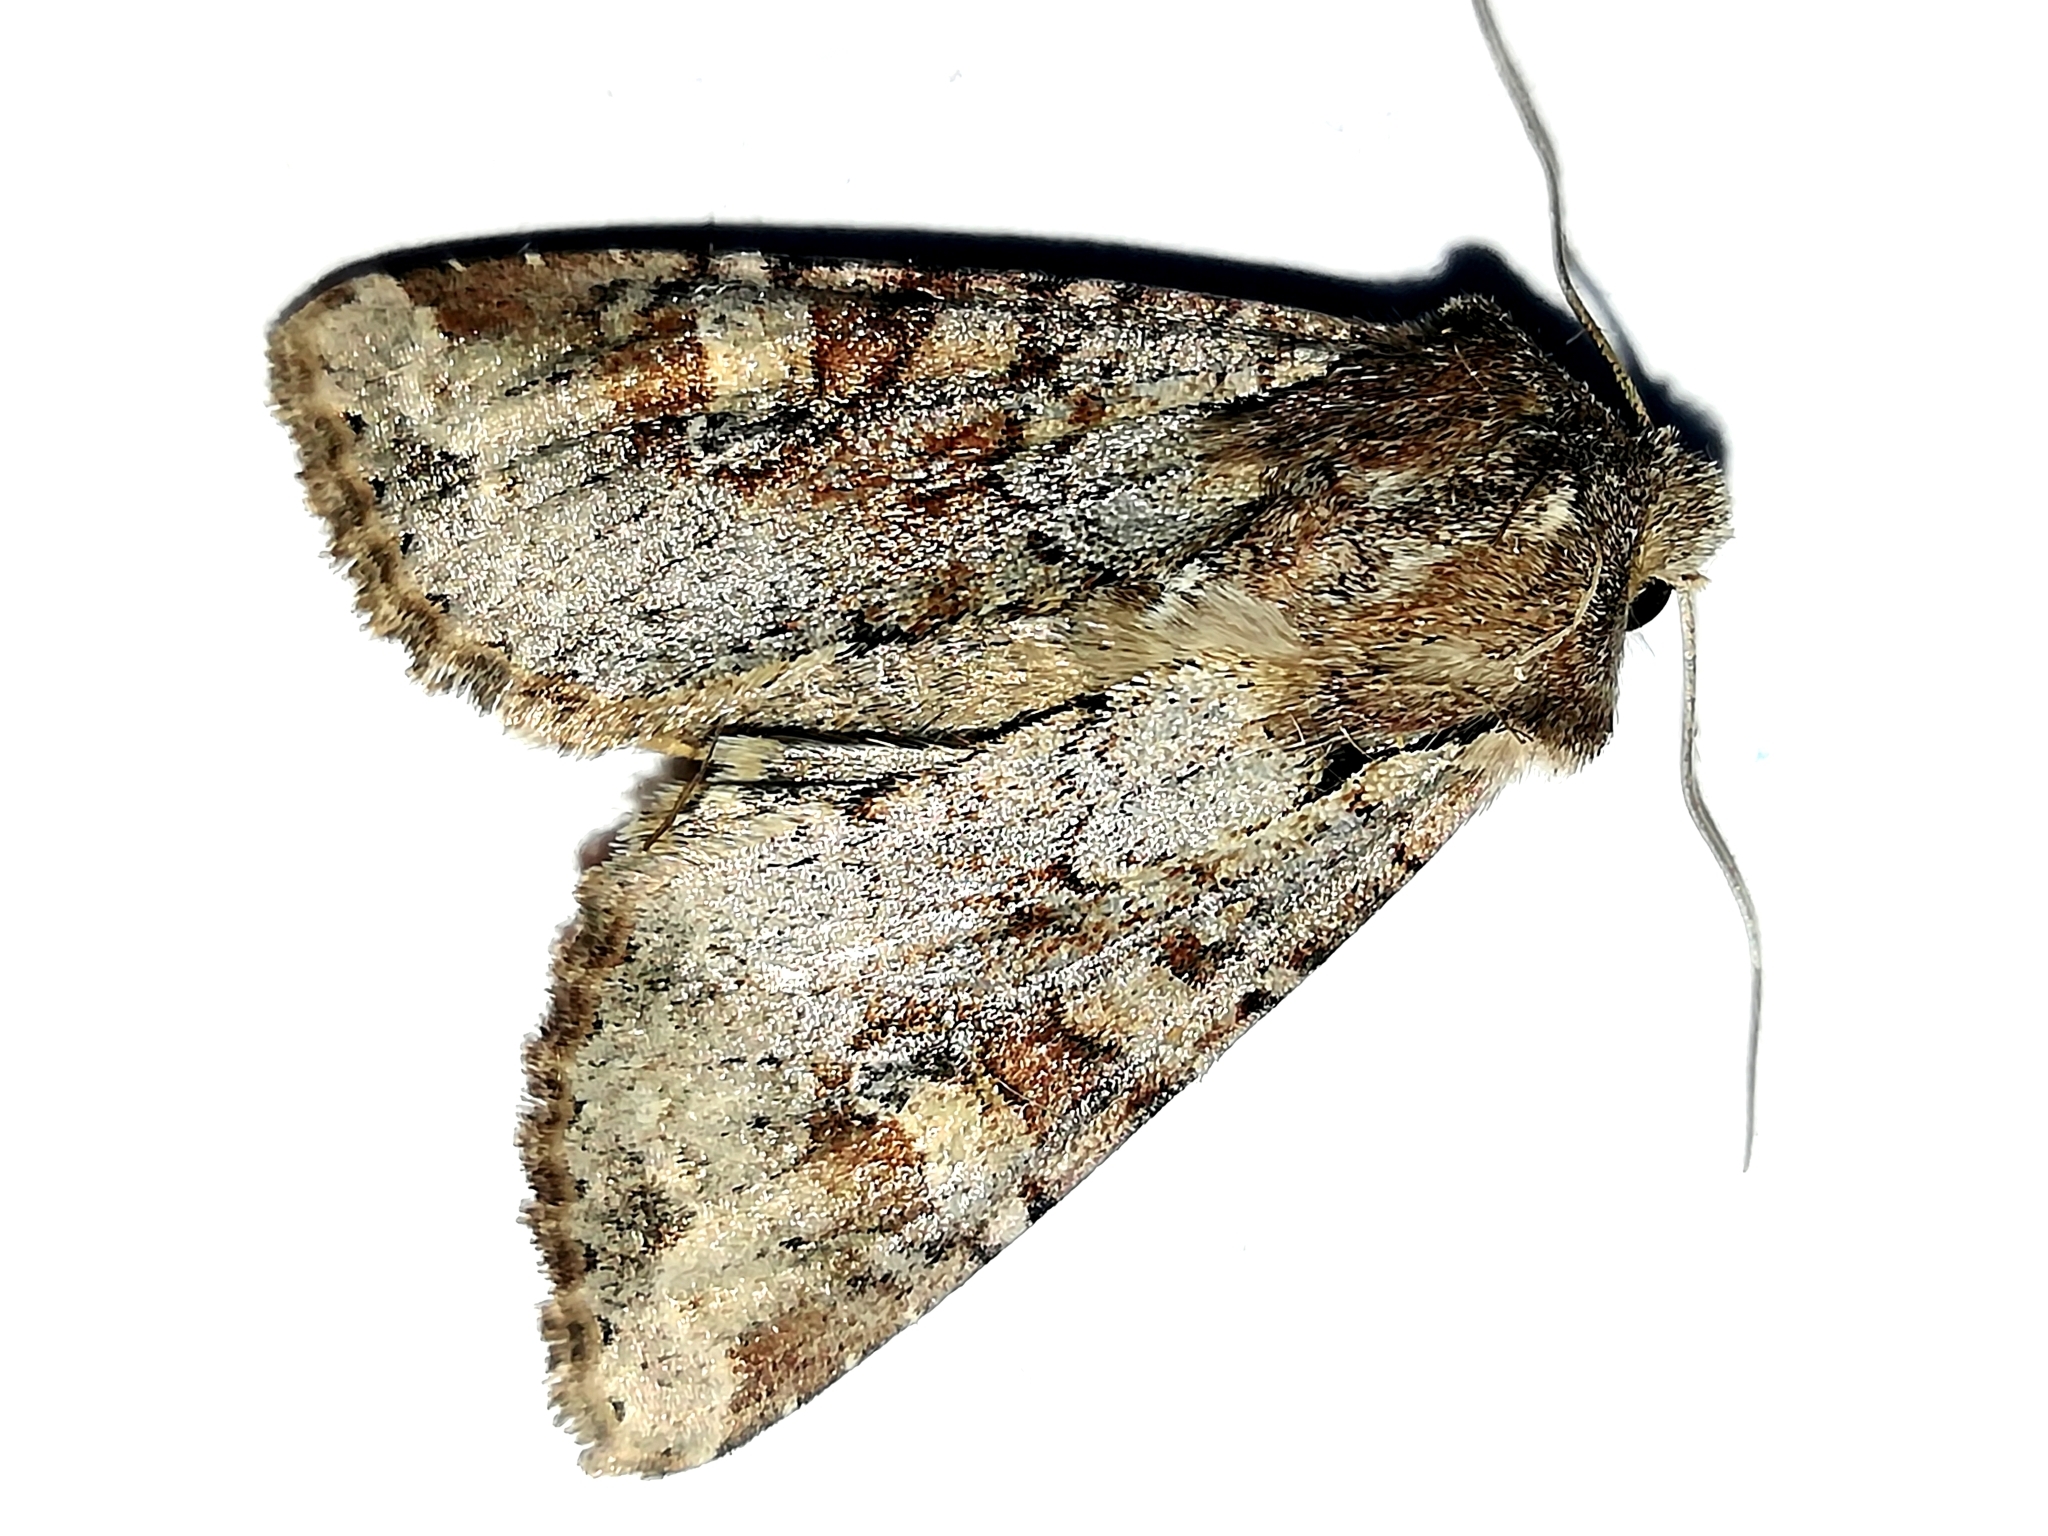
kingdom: Animalia
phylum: Arthropoda
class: Insecta
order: Lepidoptera
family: Noctuidae
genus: Apamea
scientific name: Apamea sordens
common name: Rustic shoulder-knot
